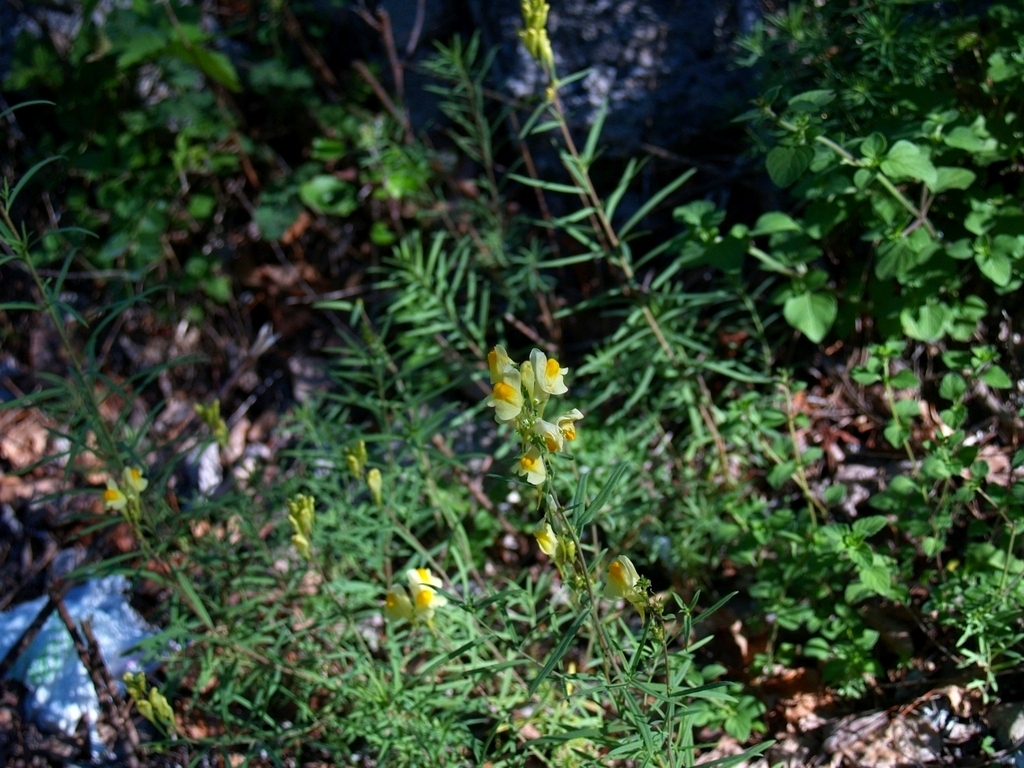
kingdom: Plantae
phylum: Tracheophyta
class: Magnoliopsida
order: Lamiales
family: Plantaginaceae
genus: Linaria
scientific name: Linaria vulgaris
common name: Butter and eggs
